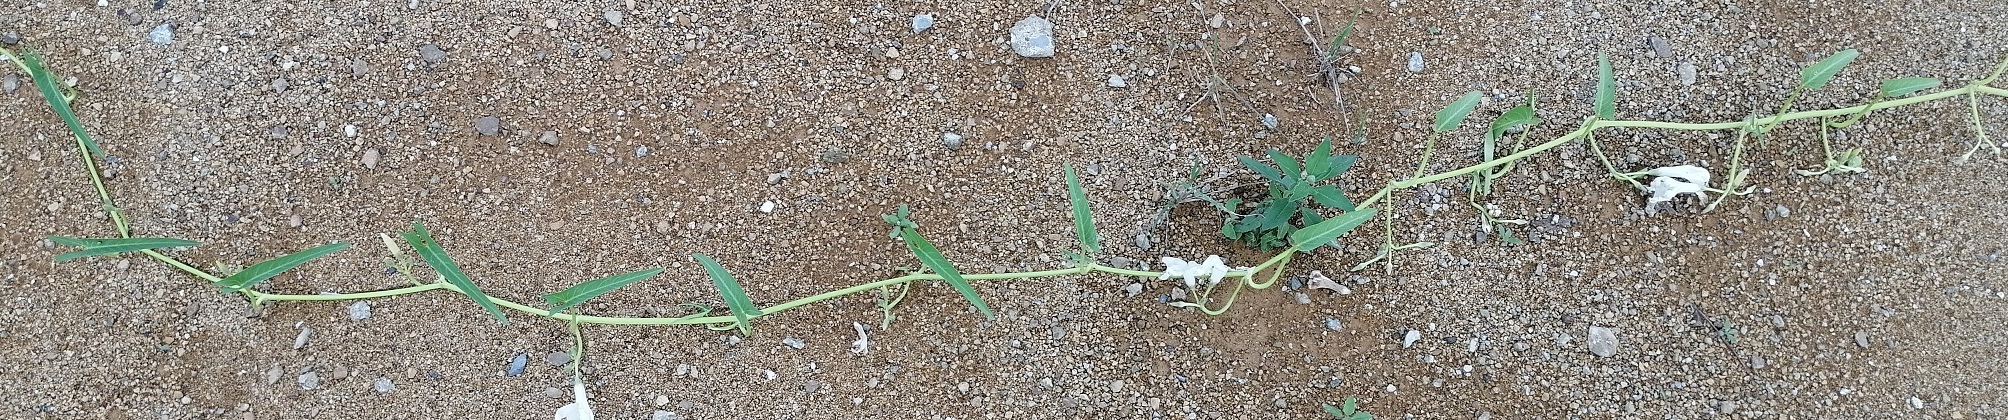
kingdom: Plantae
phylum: Tracheophyta
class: Magnoliopsida
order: Solanales
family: Convolvulaceae
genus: Ipomoea
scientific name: Ipomoea aquatica
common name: Swamp morning-glory
